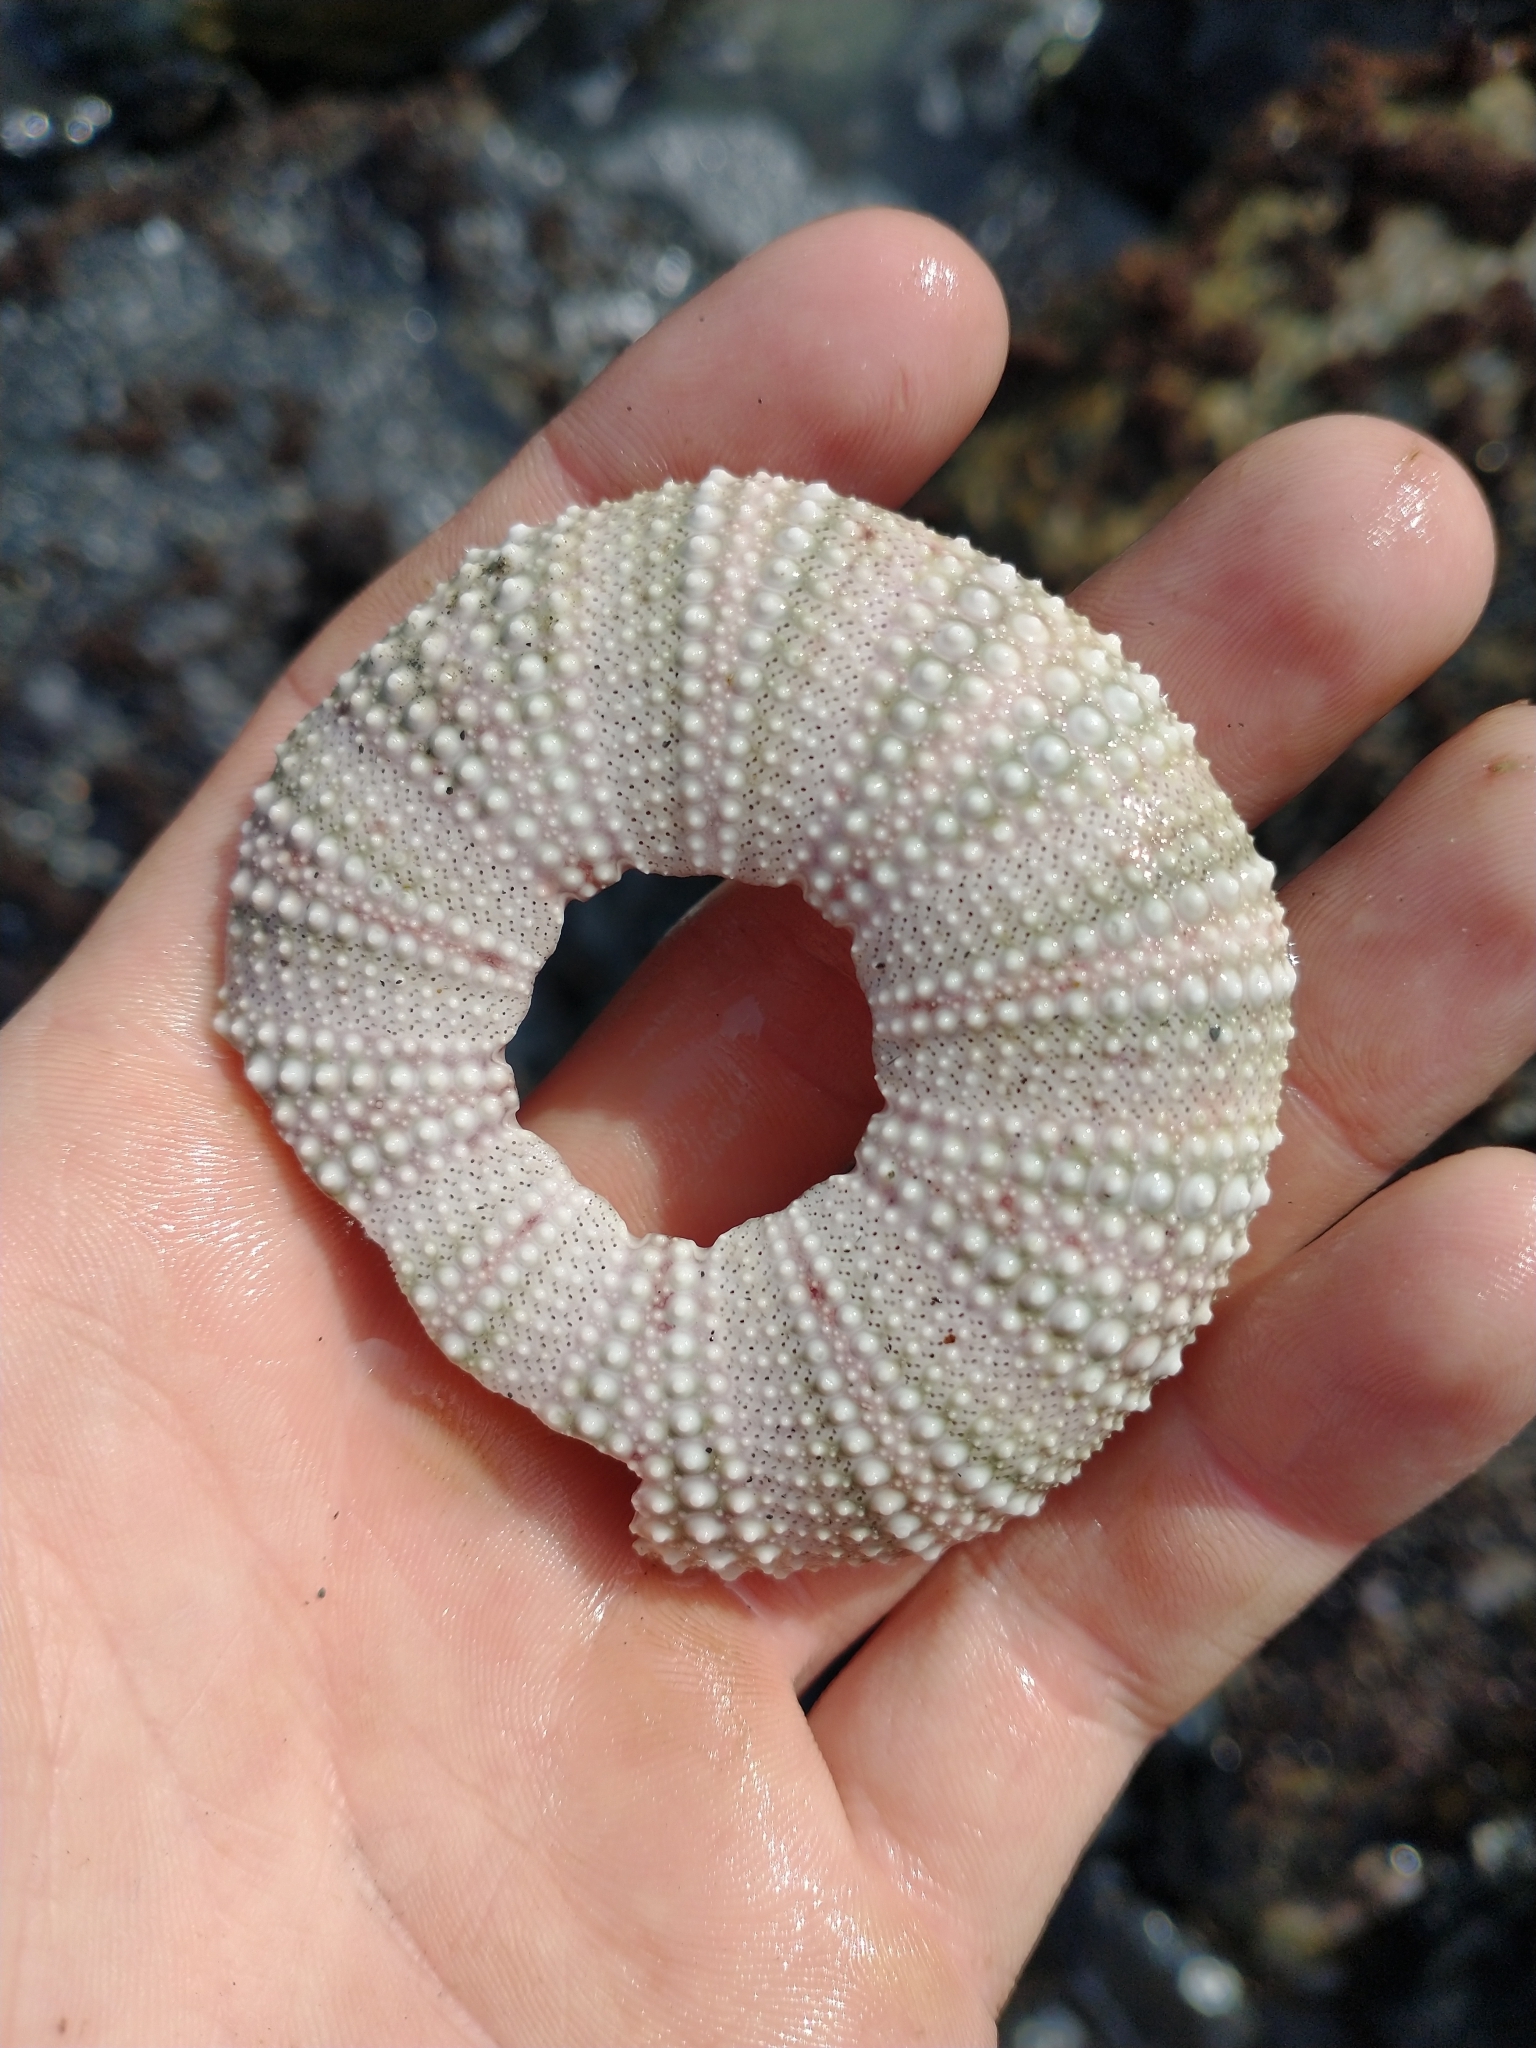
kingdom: Animalia
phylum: Echinodermata
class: Echinoidea
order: Camarodonta
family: Strongylocentrotidae
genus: Strongylocentrotus
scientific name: Strongylocentrotus purpuratus
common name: Purple sea urchin
